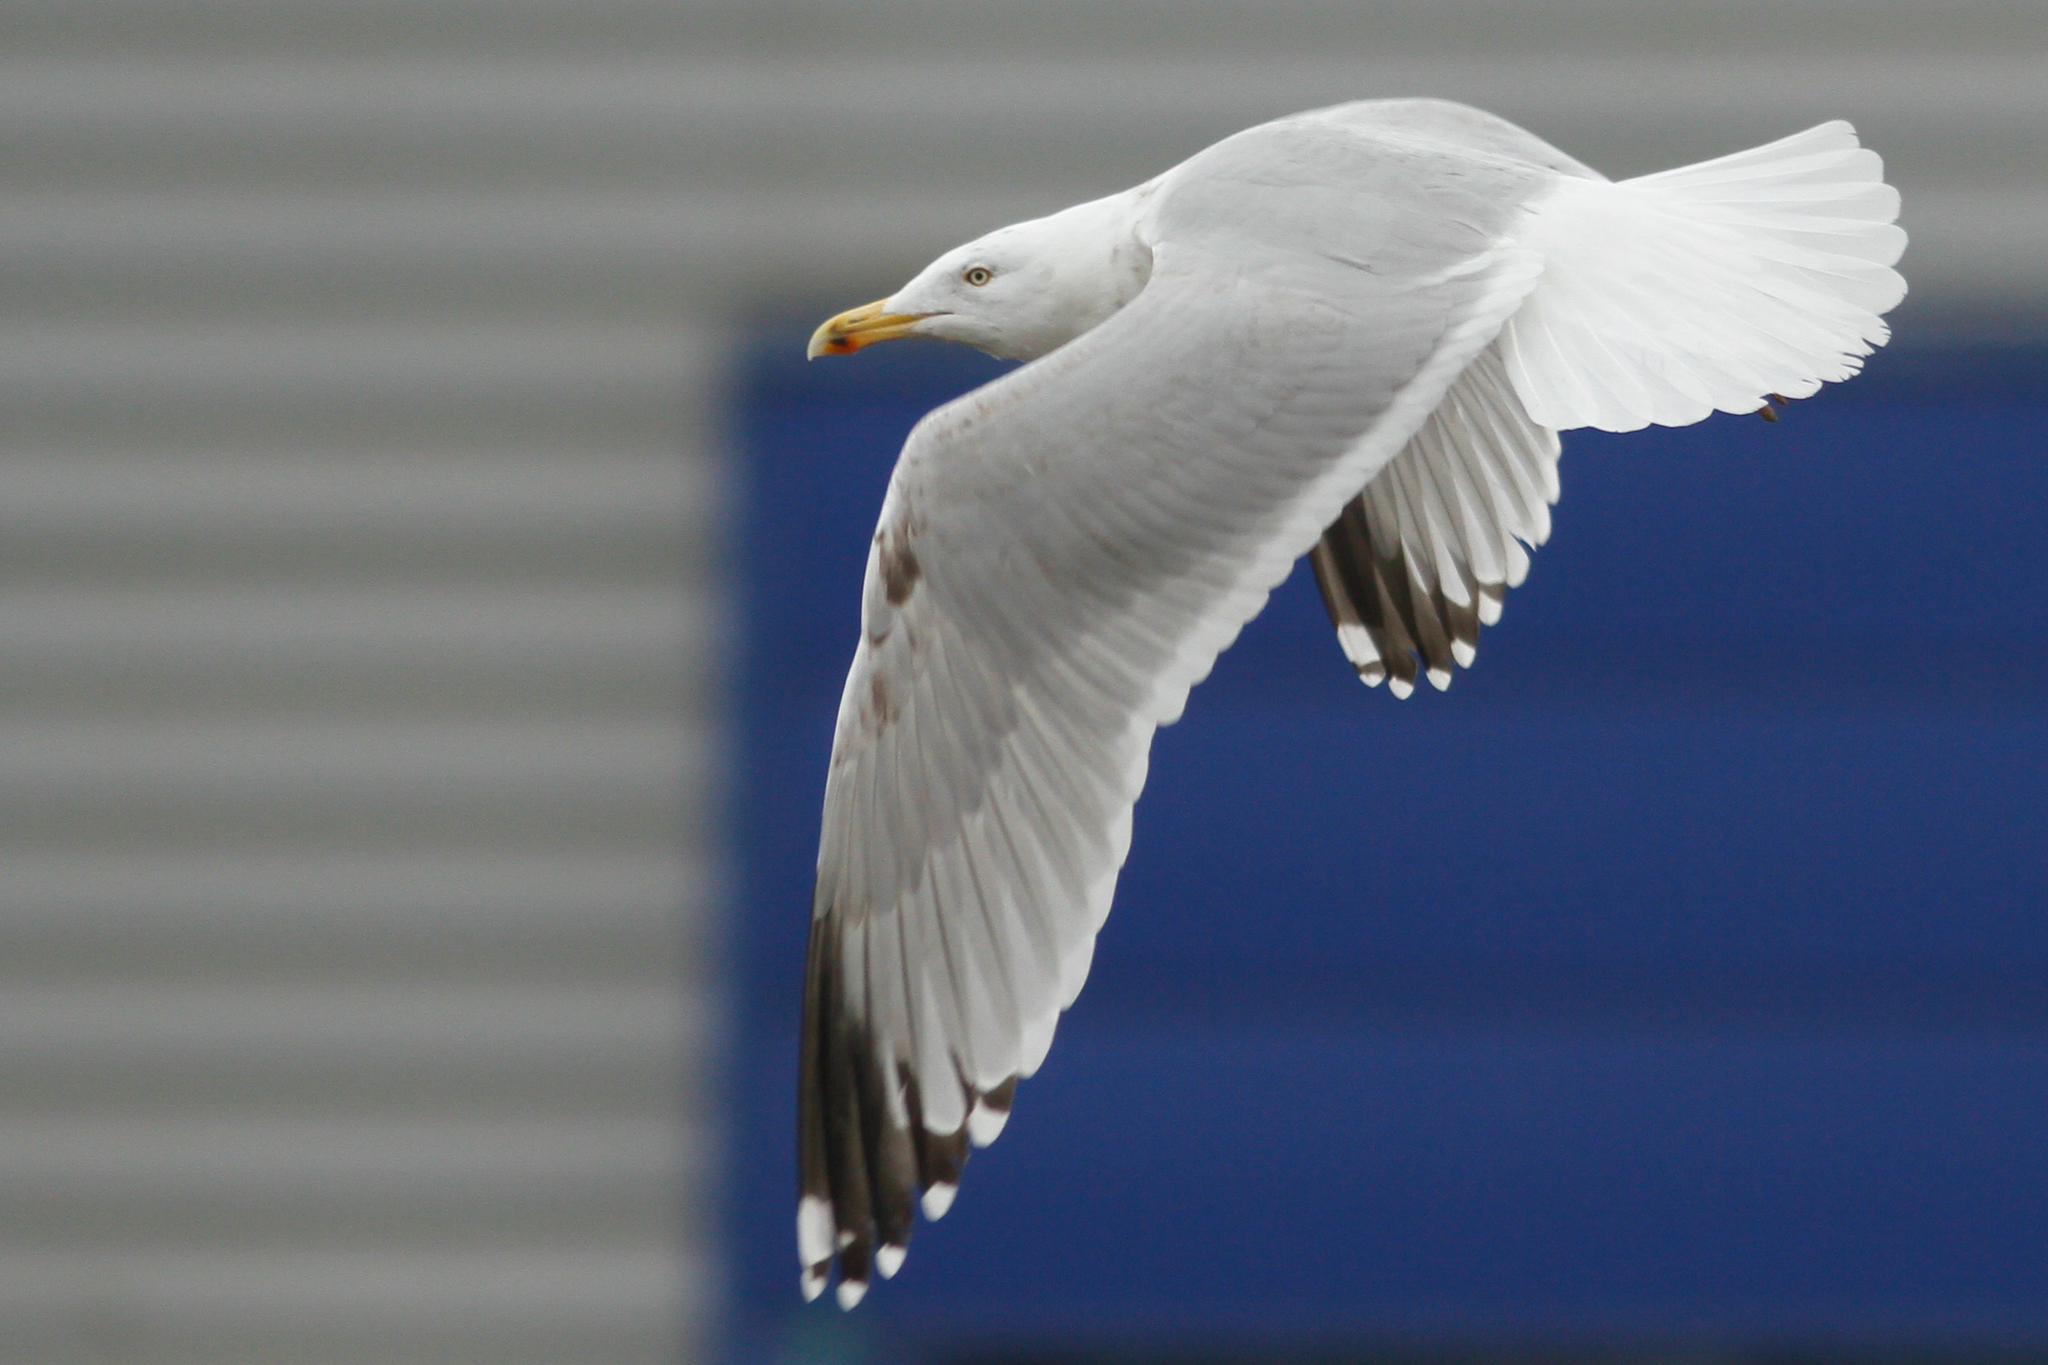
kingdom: Animalia
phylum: Chordata
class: Aves
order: Charadriiformes
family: Laridae
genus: Larus
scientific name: Larus argentatus
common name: Herring gull
